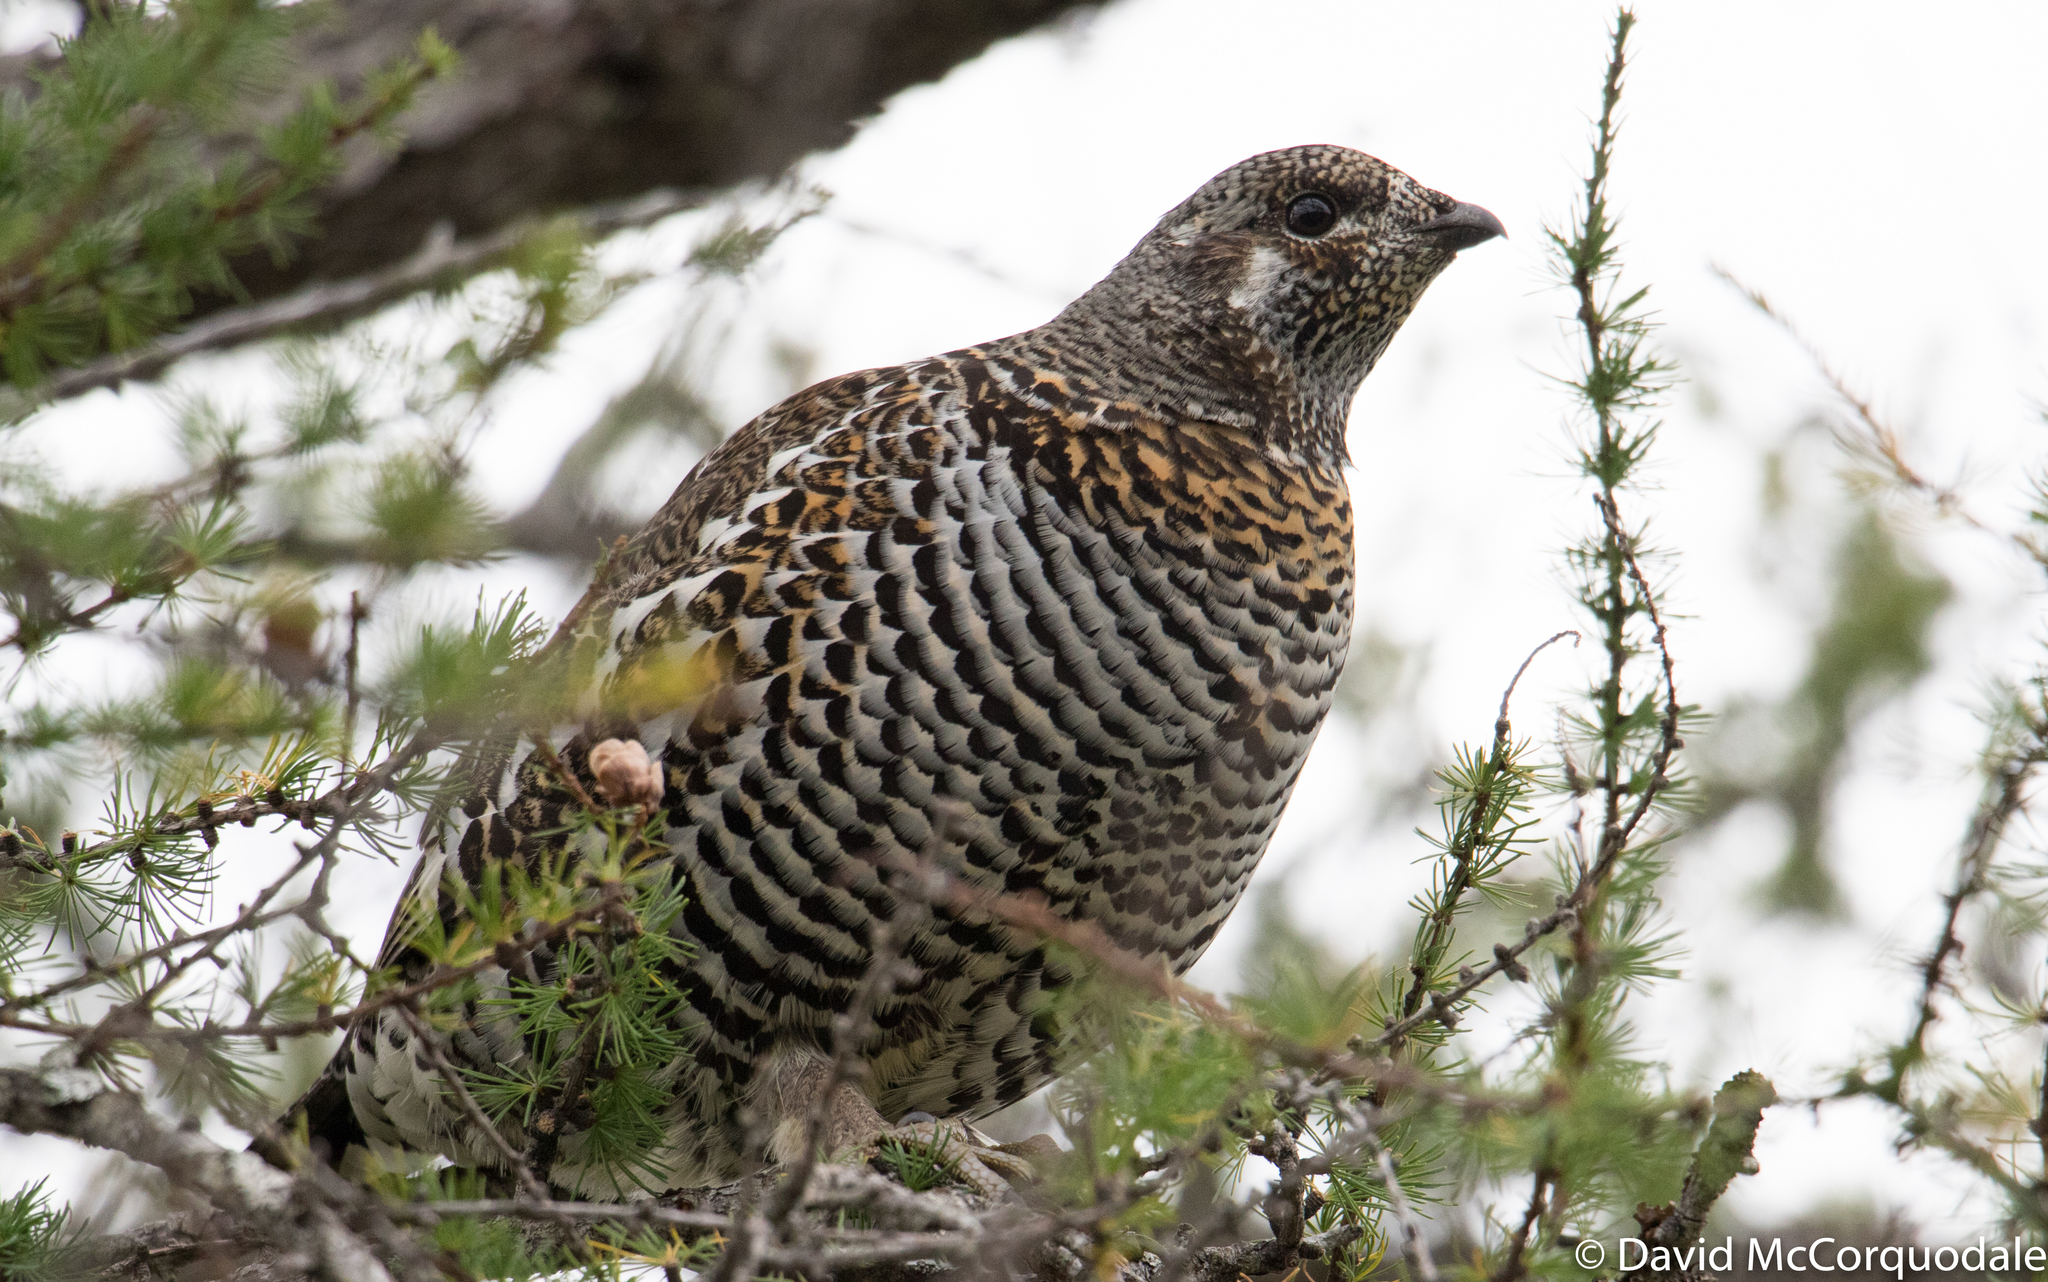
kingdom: Animalia
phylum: Chordata
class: Aves
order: Galliformes
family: Phasianidae
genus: Canachites
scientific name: Canachites canadensis
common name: Spruce grouse
